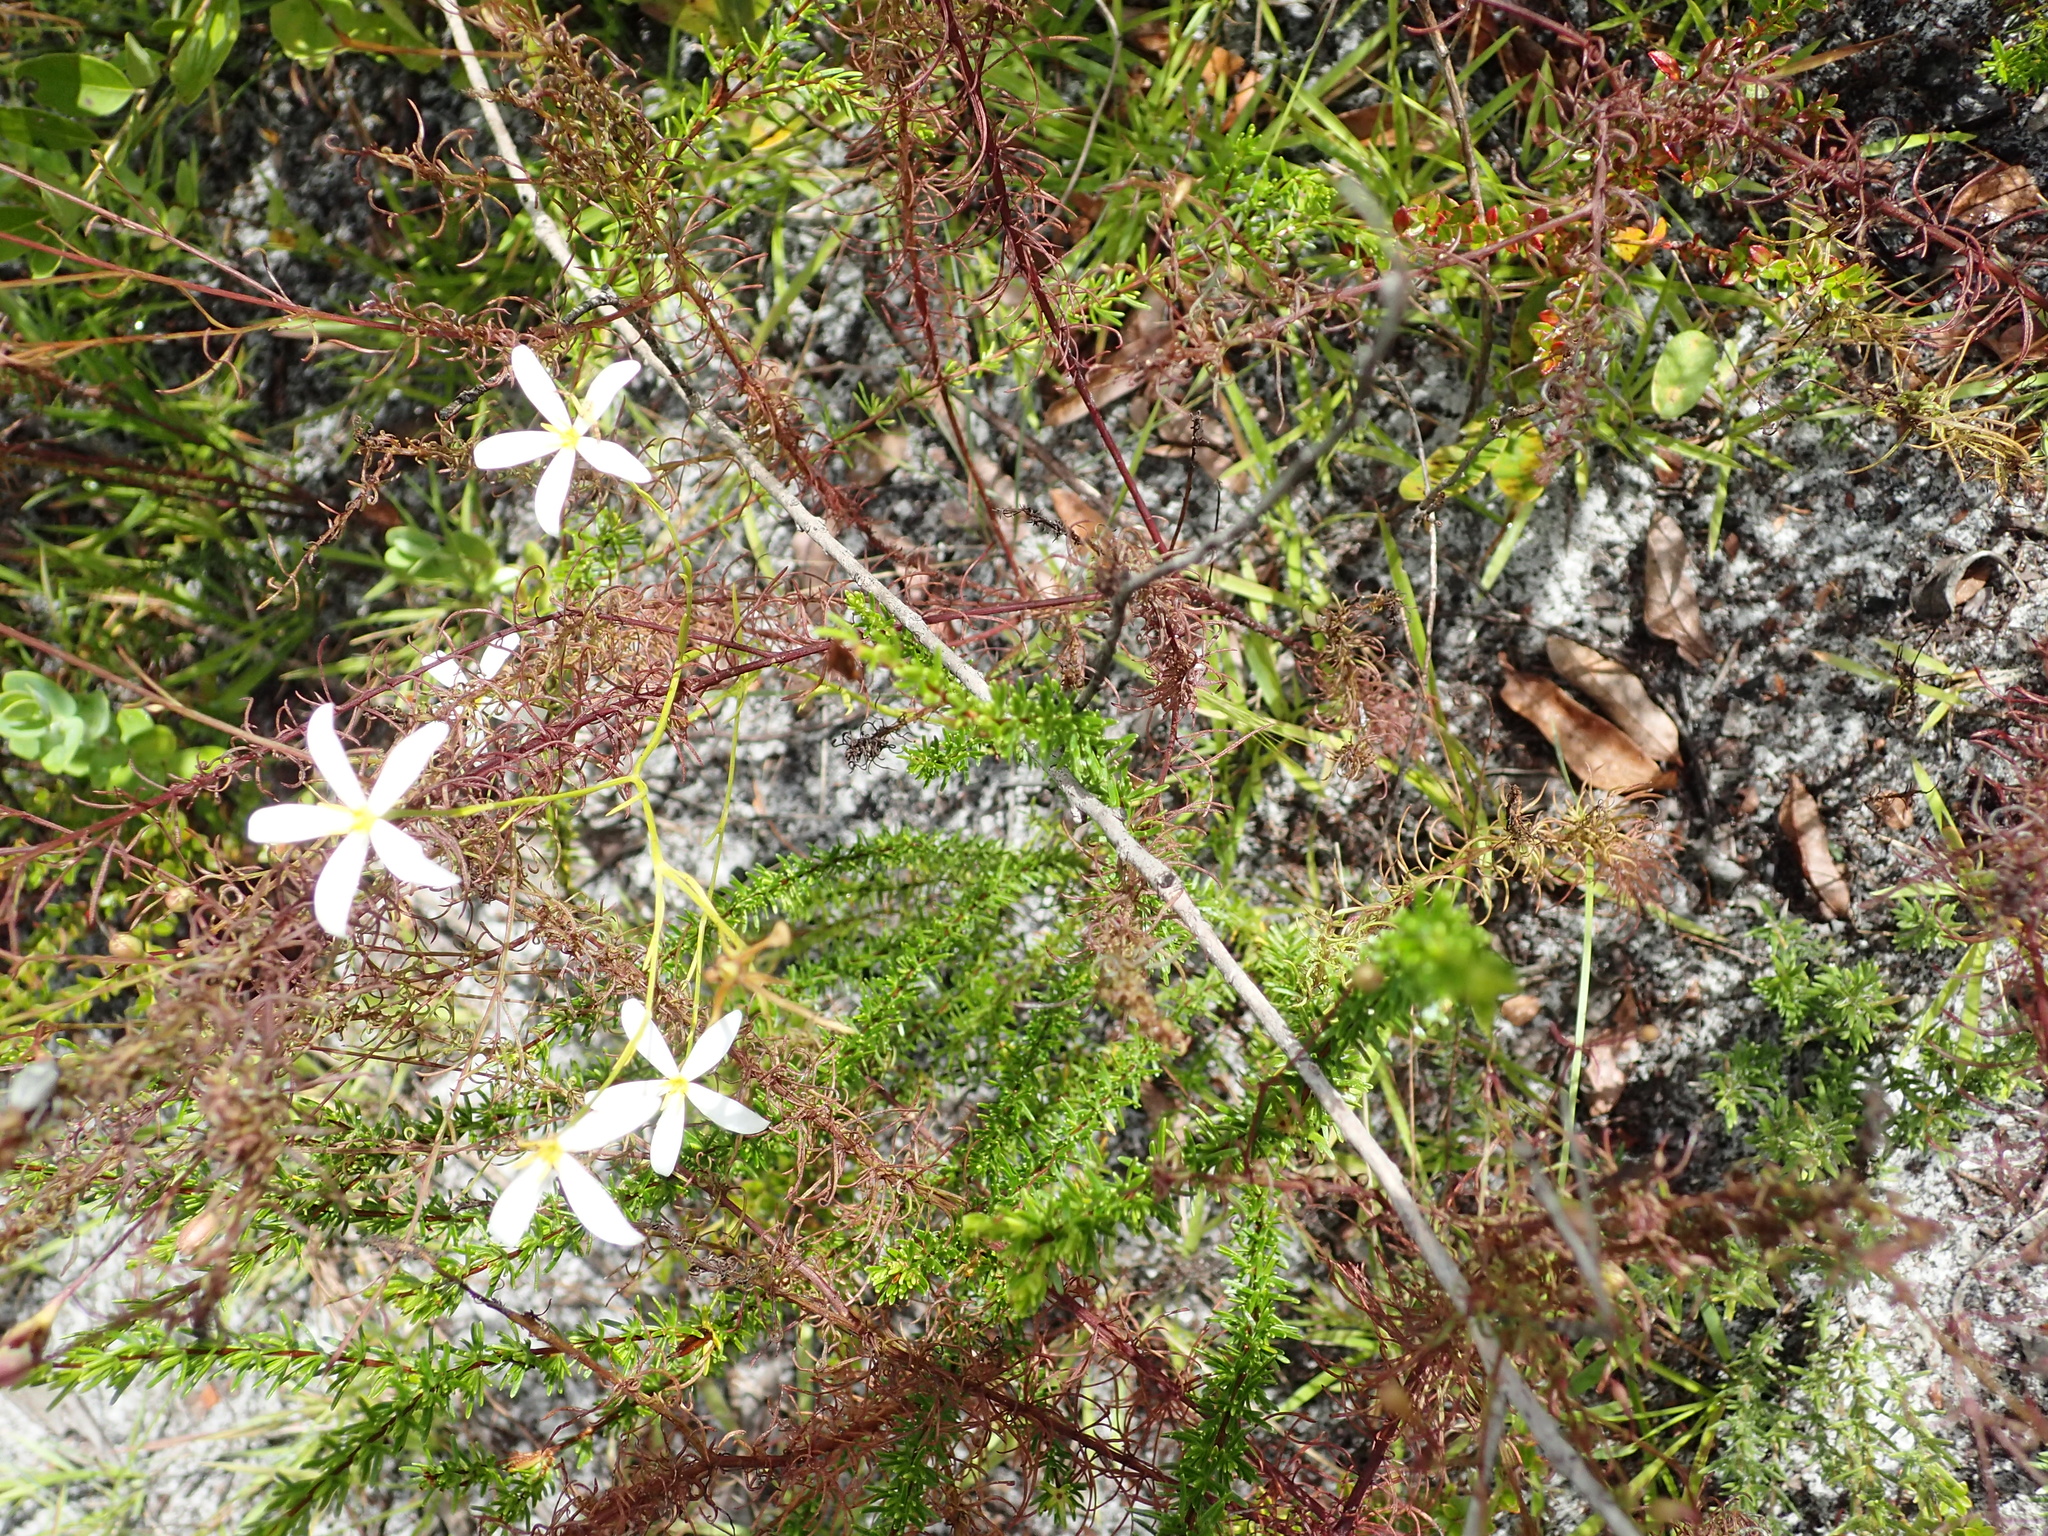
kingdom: Plantae
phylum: Tracheophyta
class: Magnoliopsida
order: Gentianales
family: Gentianaceae
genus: Sabatia
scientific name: Sabatia brevifolia
